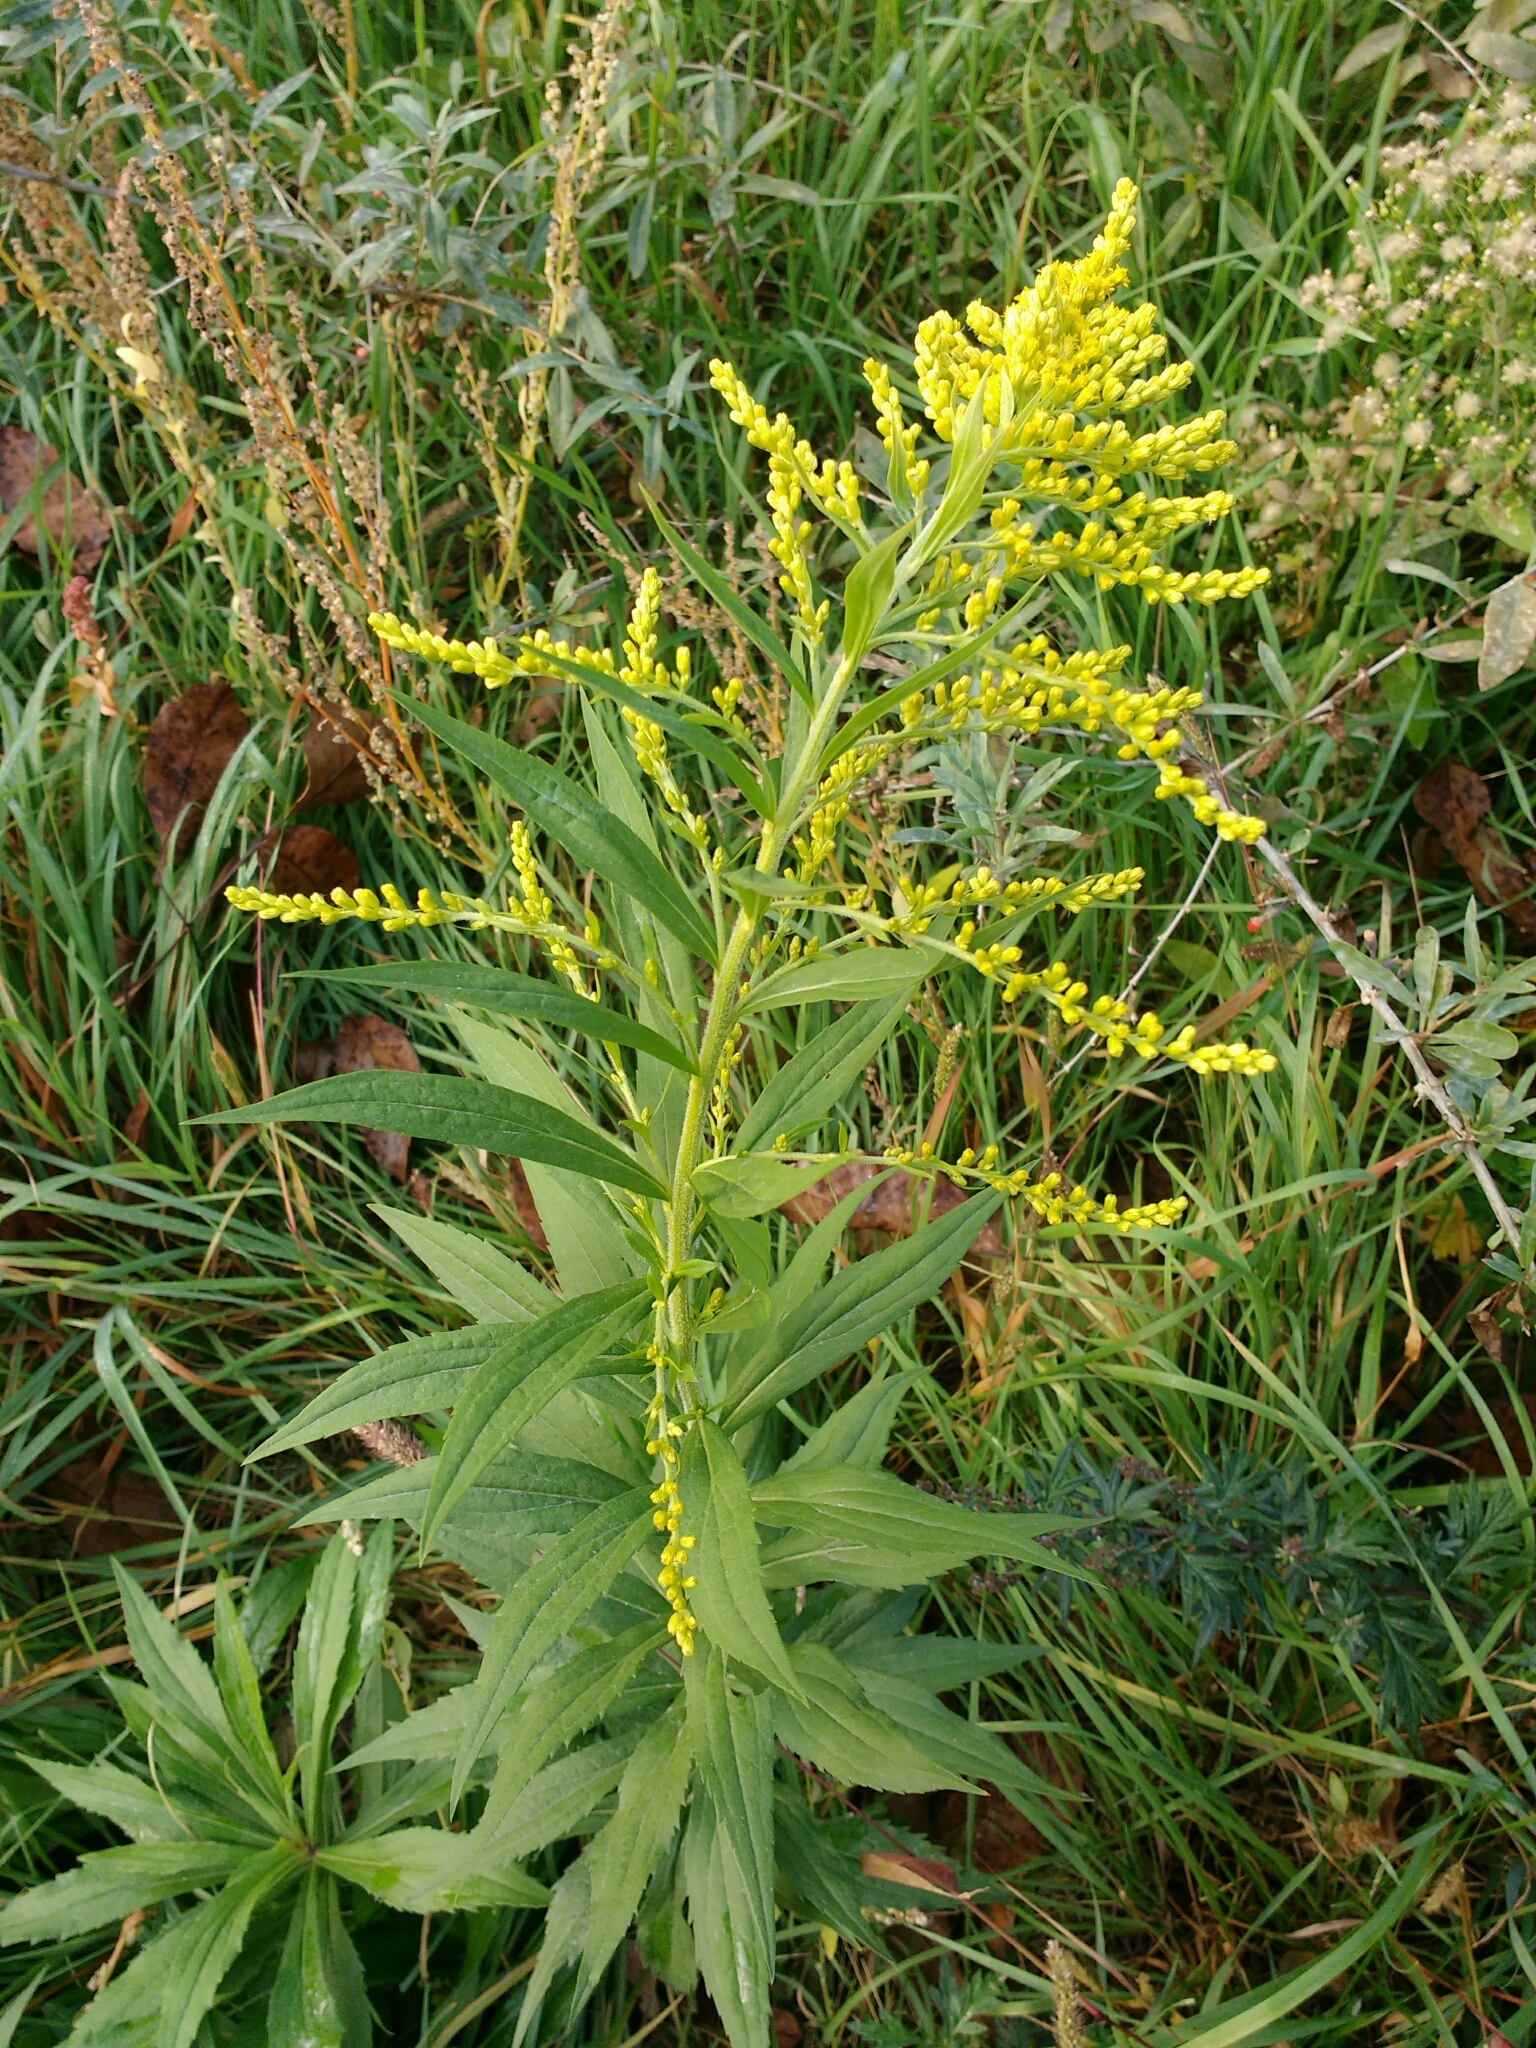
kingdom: Plantae
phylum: Tracheophyta
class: Magnoliopsida
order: Asterales
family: Asteraceae
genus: Solidago
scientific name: Solidago canadensis
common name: Canada goldenrod
